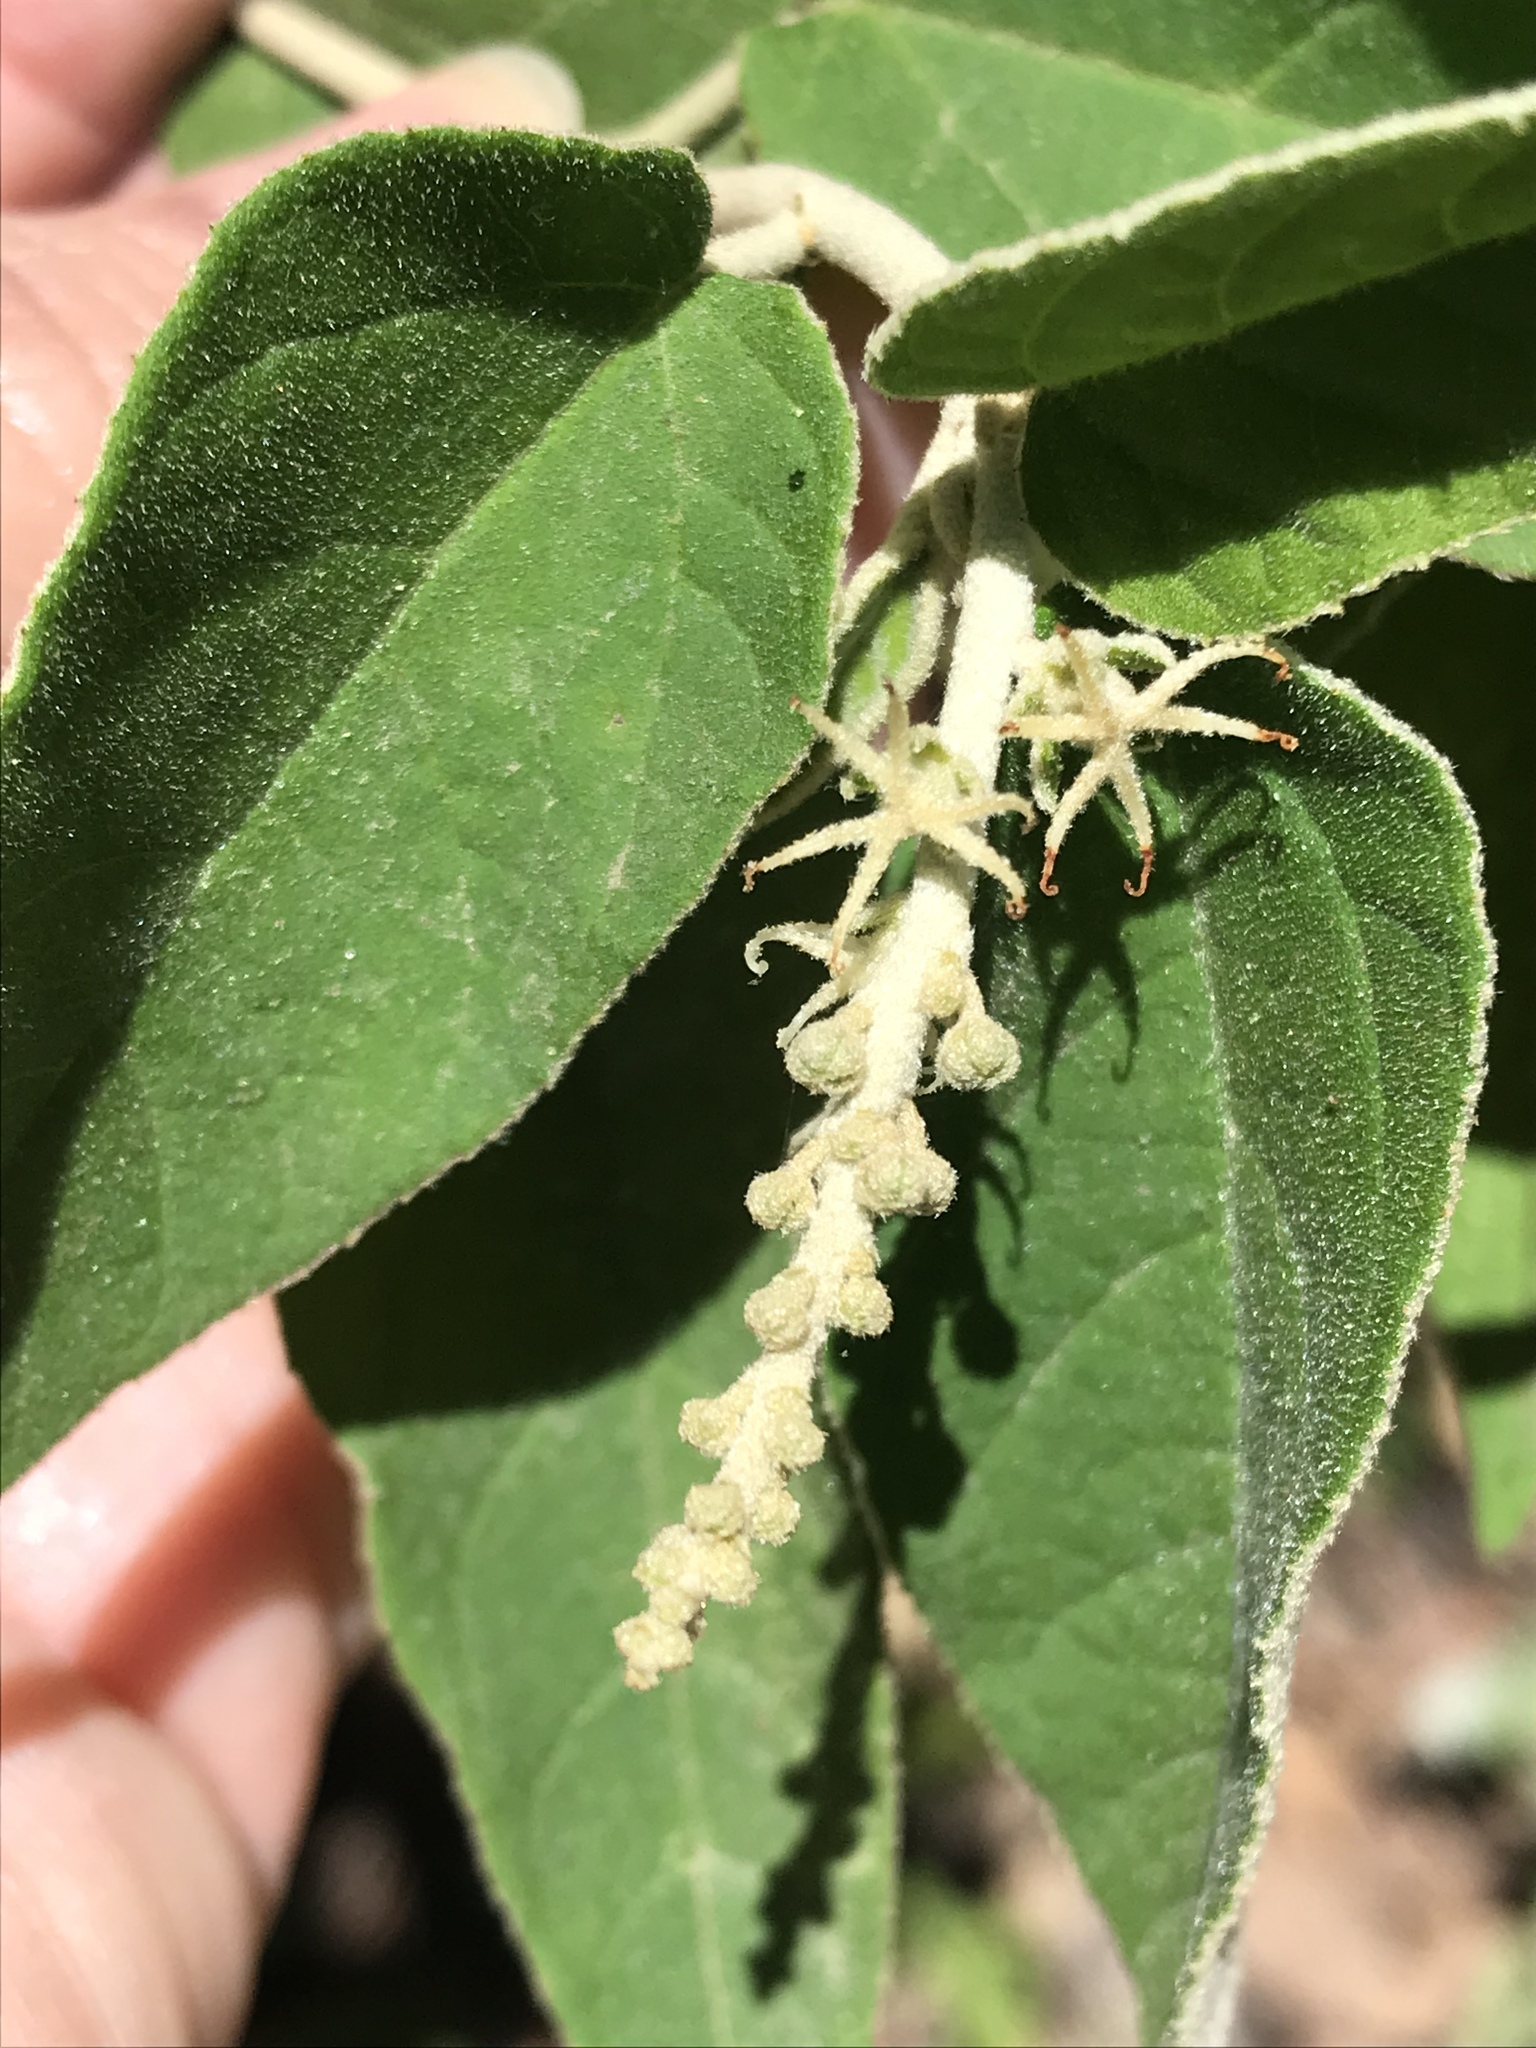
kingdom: Plantae
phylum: Tracheophyta
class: Magnoliopsida
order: Malpighiales
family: Euphorbiaceae
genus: Croton
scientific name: Croton fruticulosus
